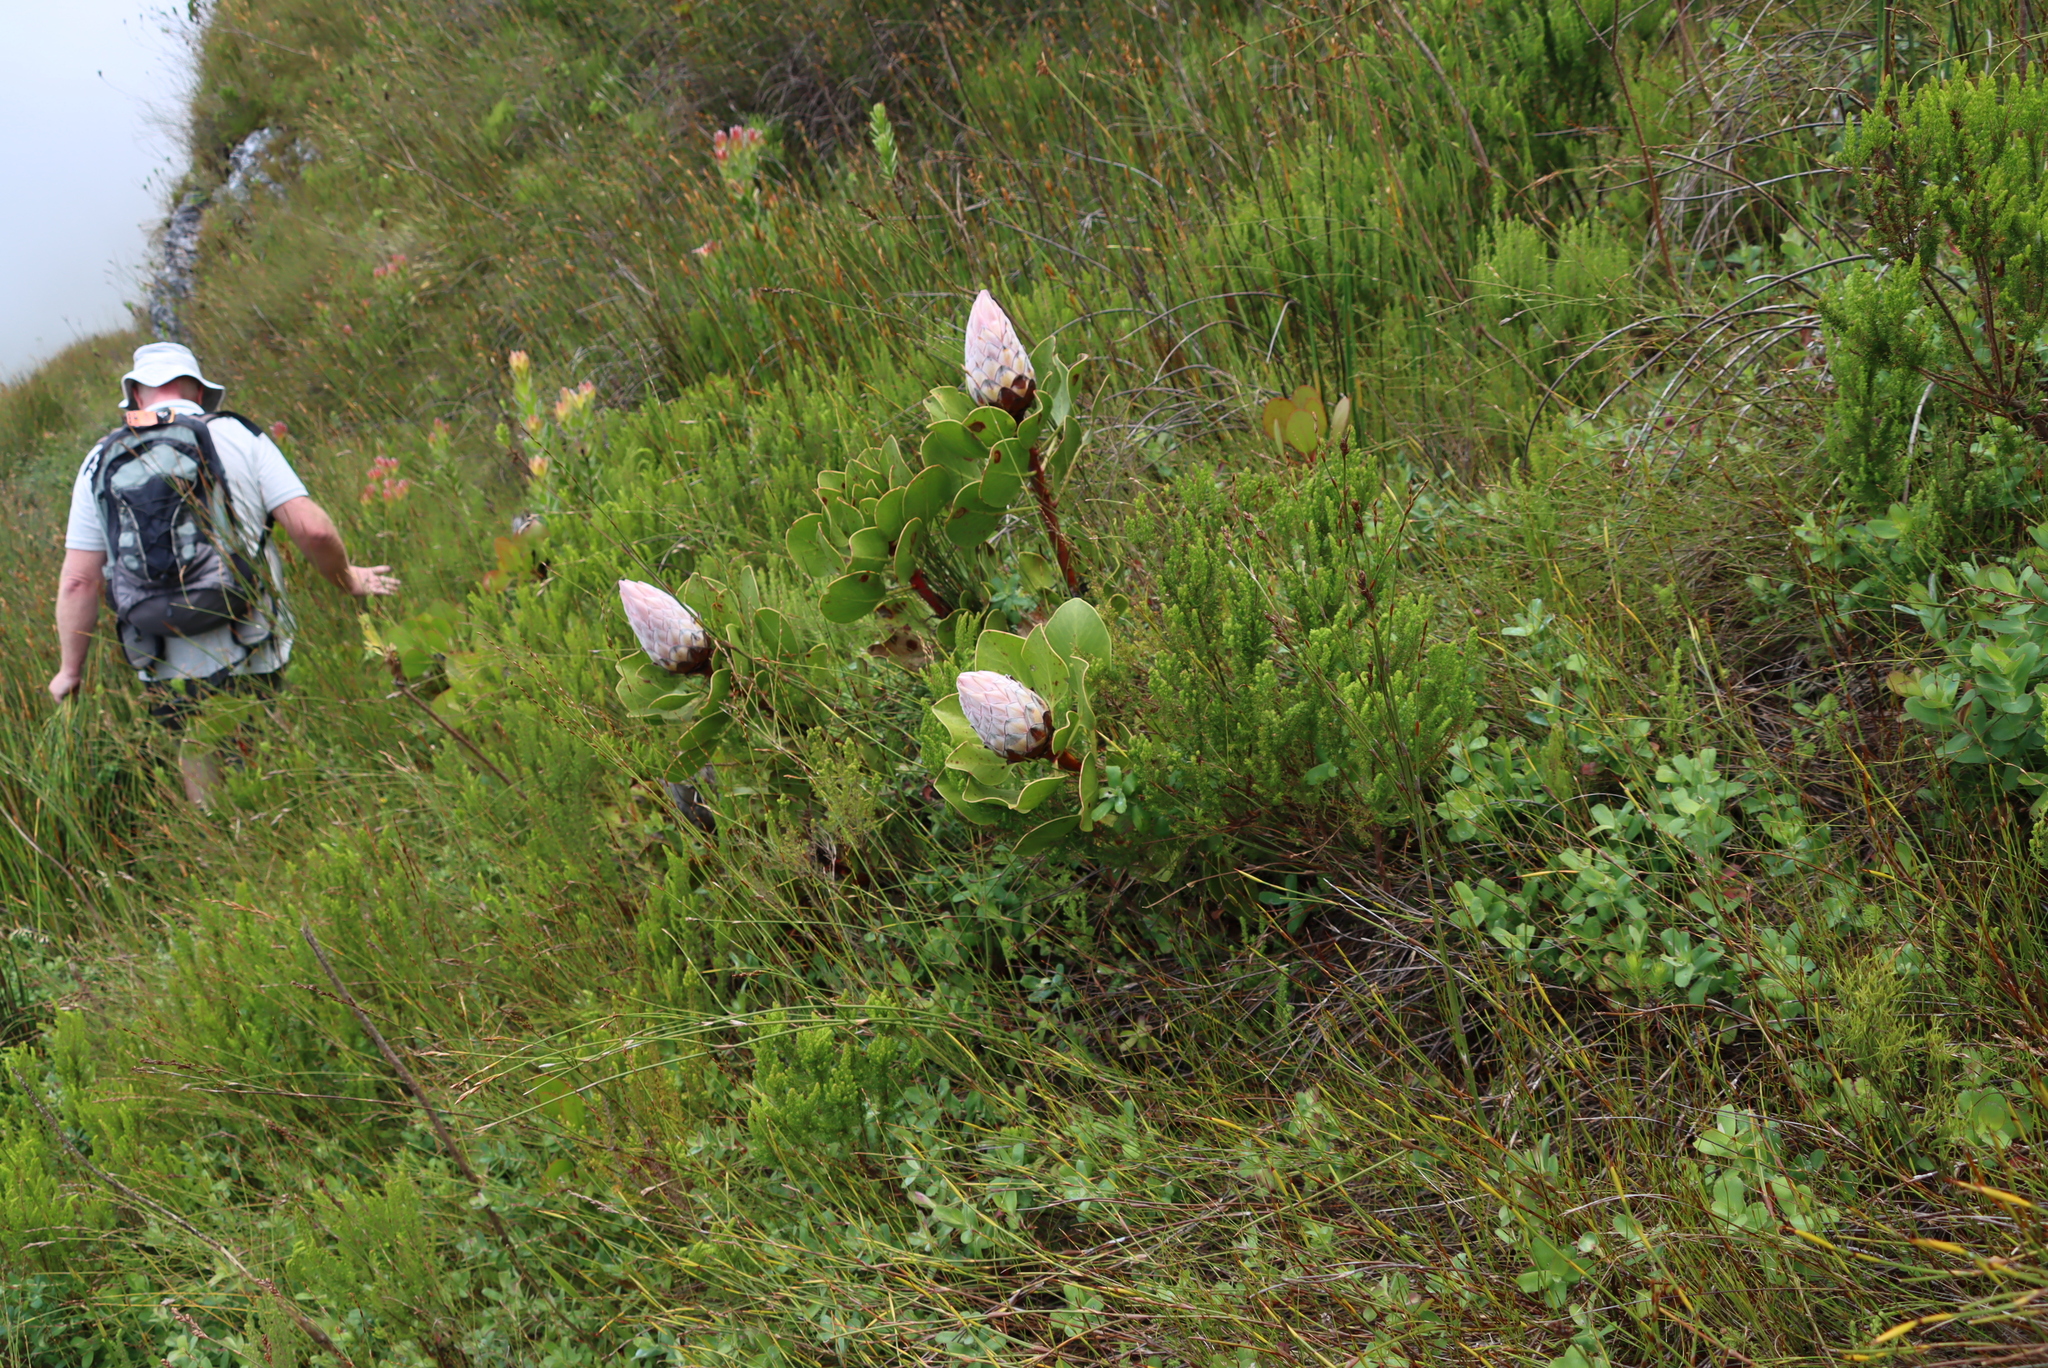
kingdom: Plantae
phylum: Tracheophyta
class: Magnoliopsida
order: Proteales
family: Proteaceae
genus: Protea
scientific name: Protea cynaroides
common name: King protea
